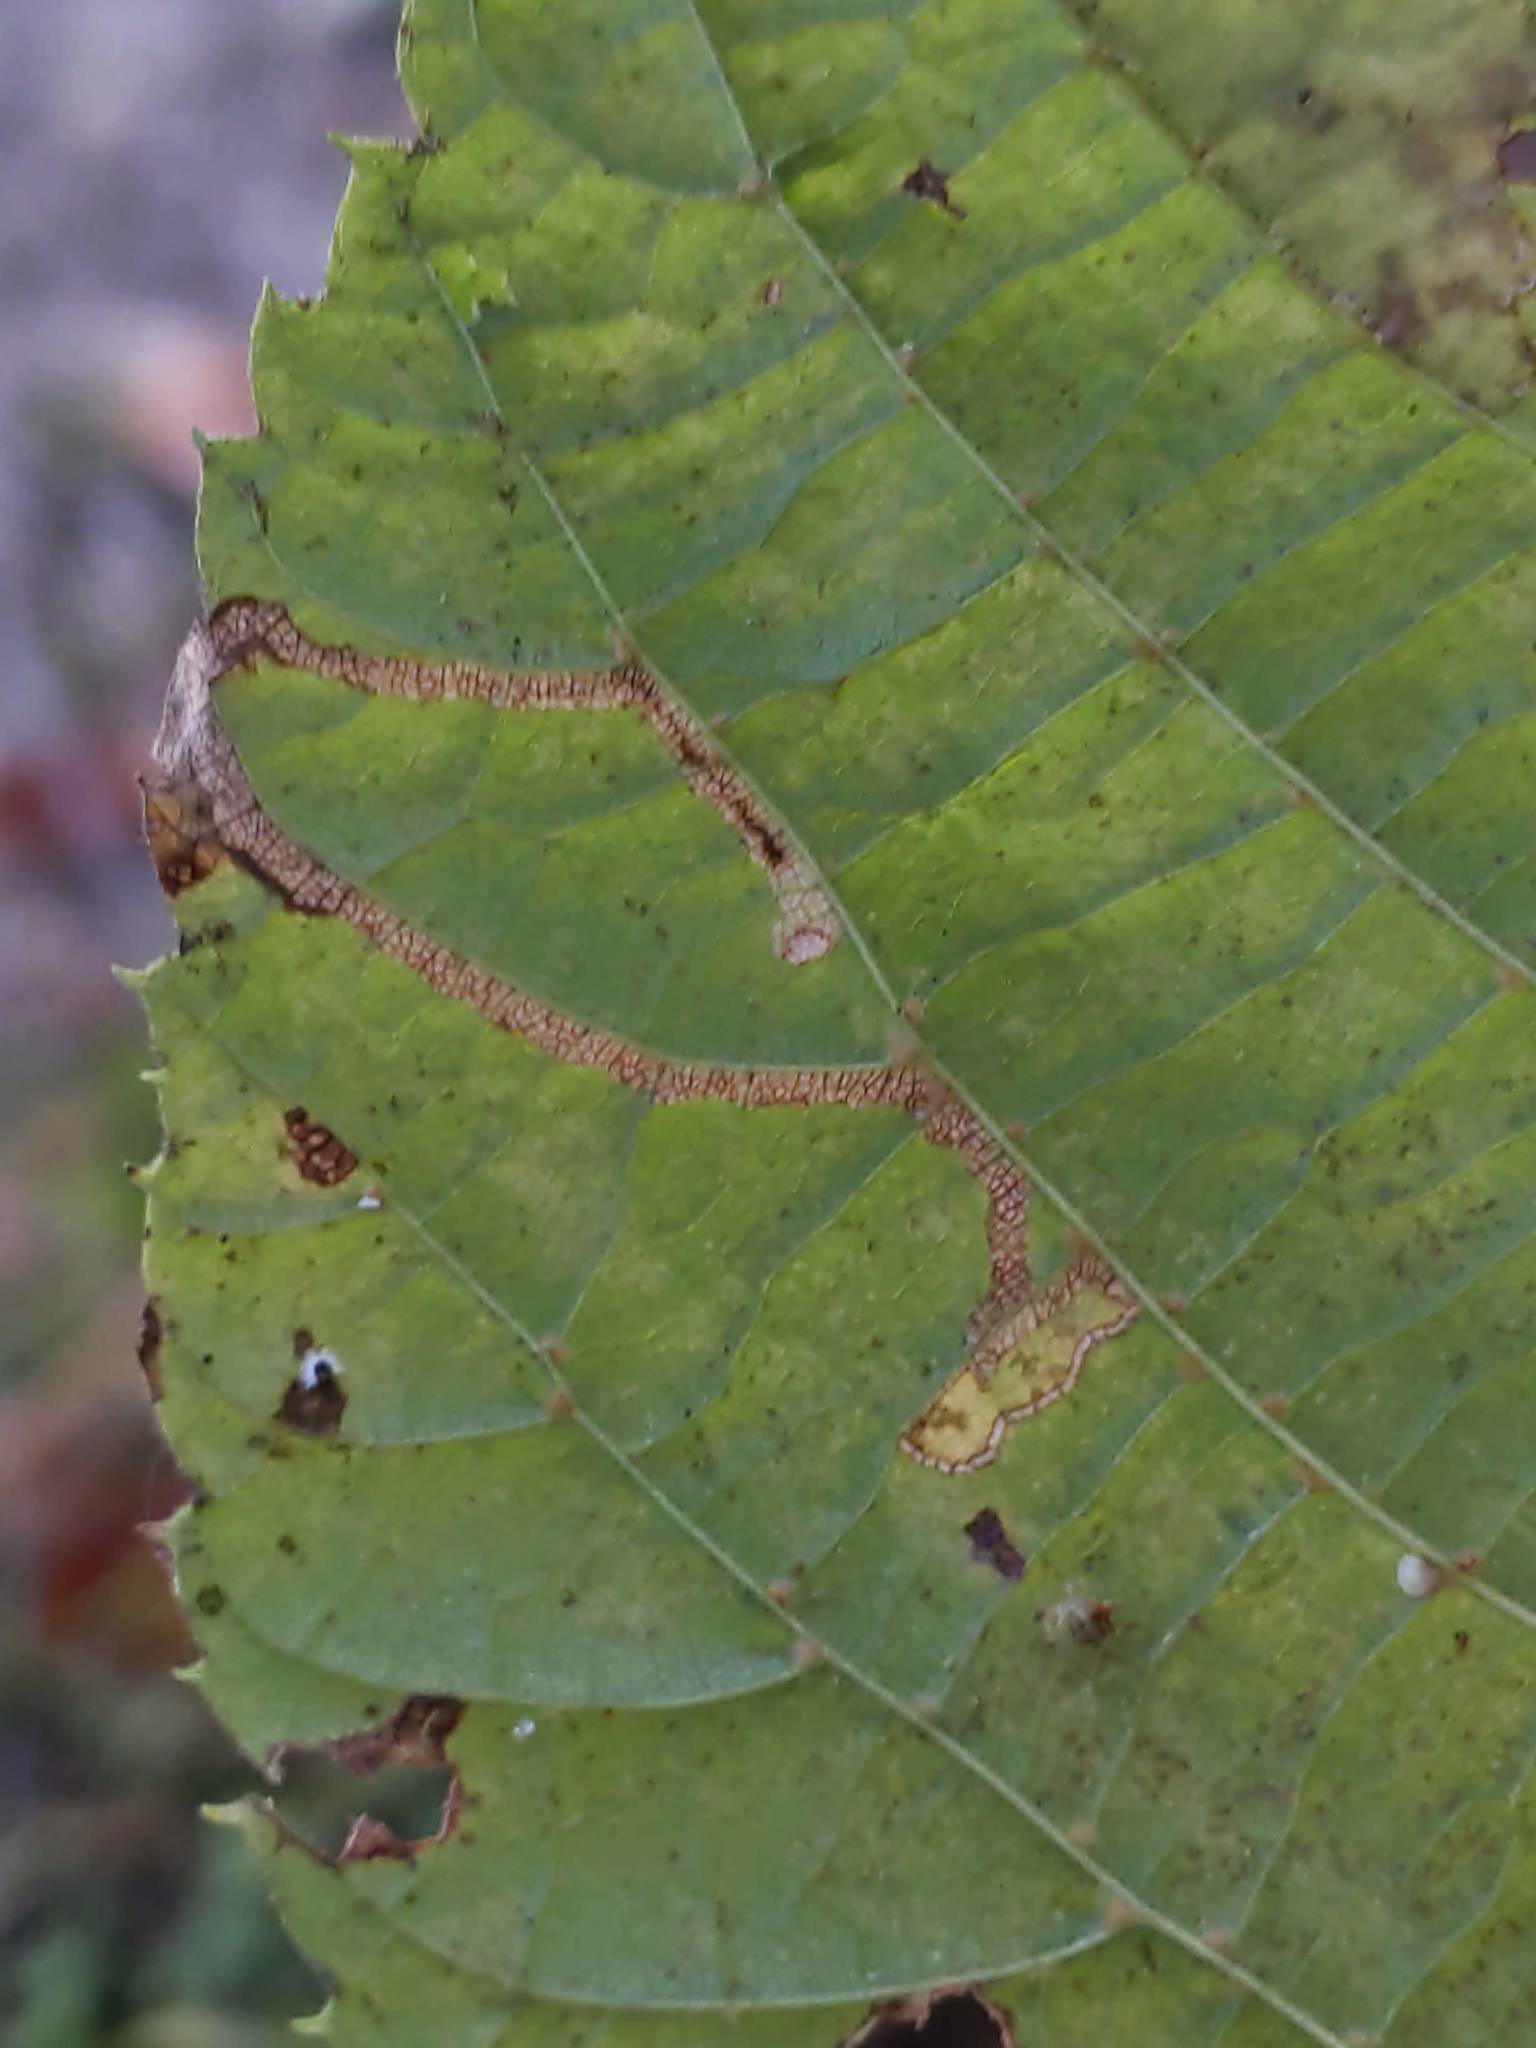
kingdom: Animalia
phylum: Arthropoda
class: Insecta
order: Lepidoptera
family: Nepticulidae
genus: Stigmella
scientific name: Stigmella tiliella
